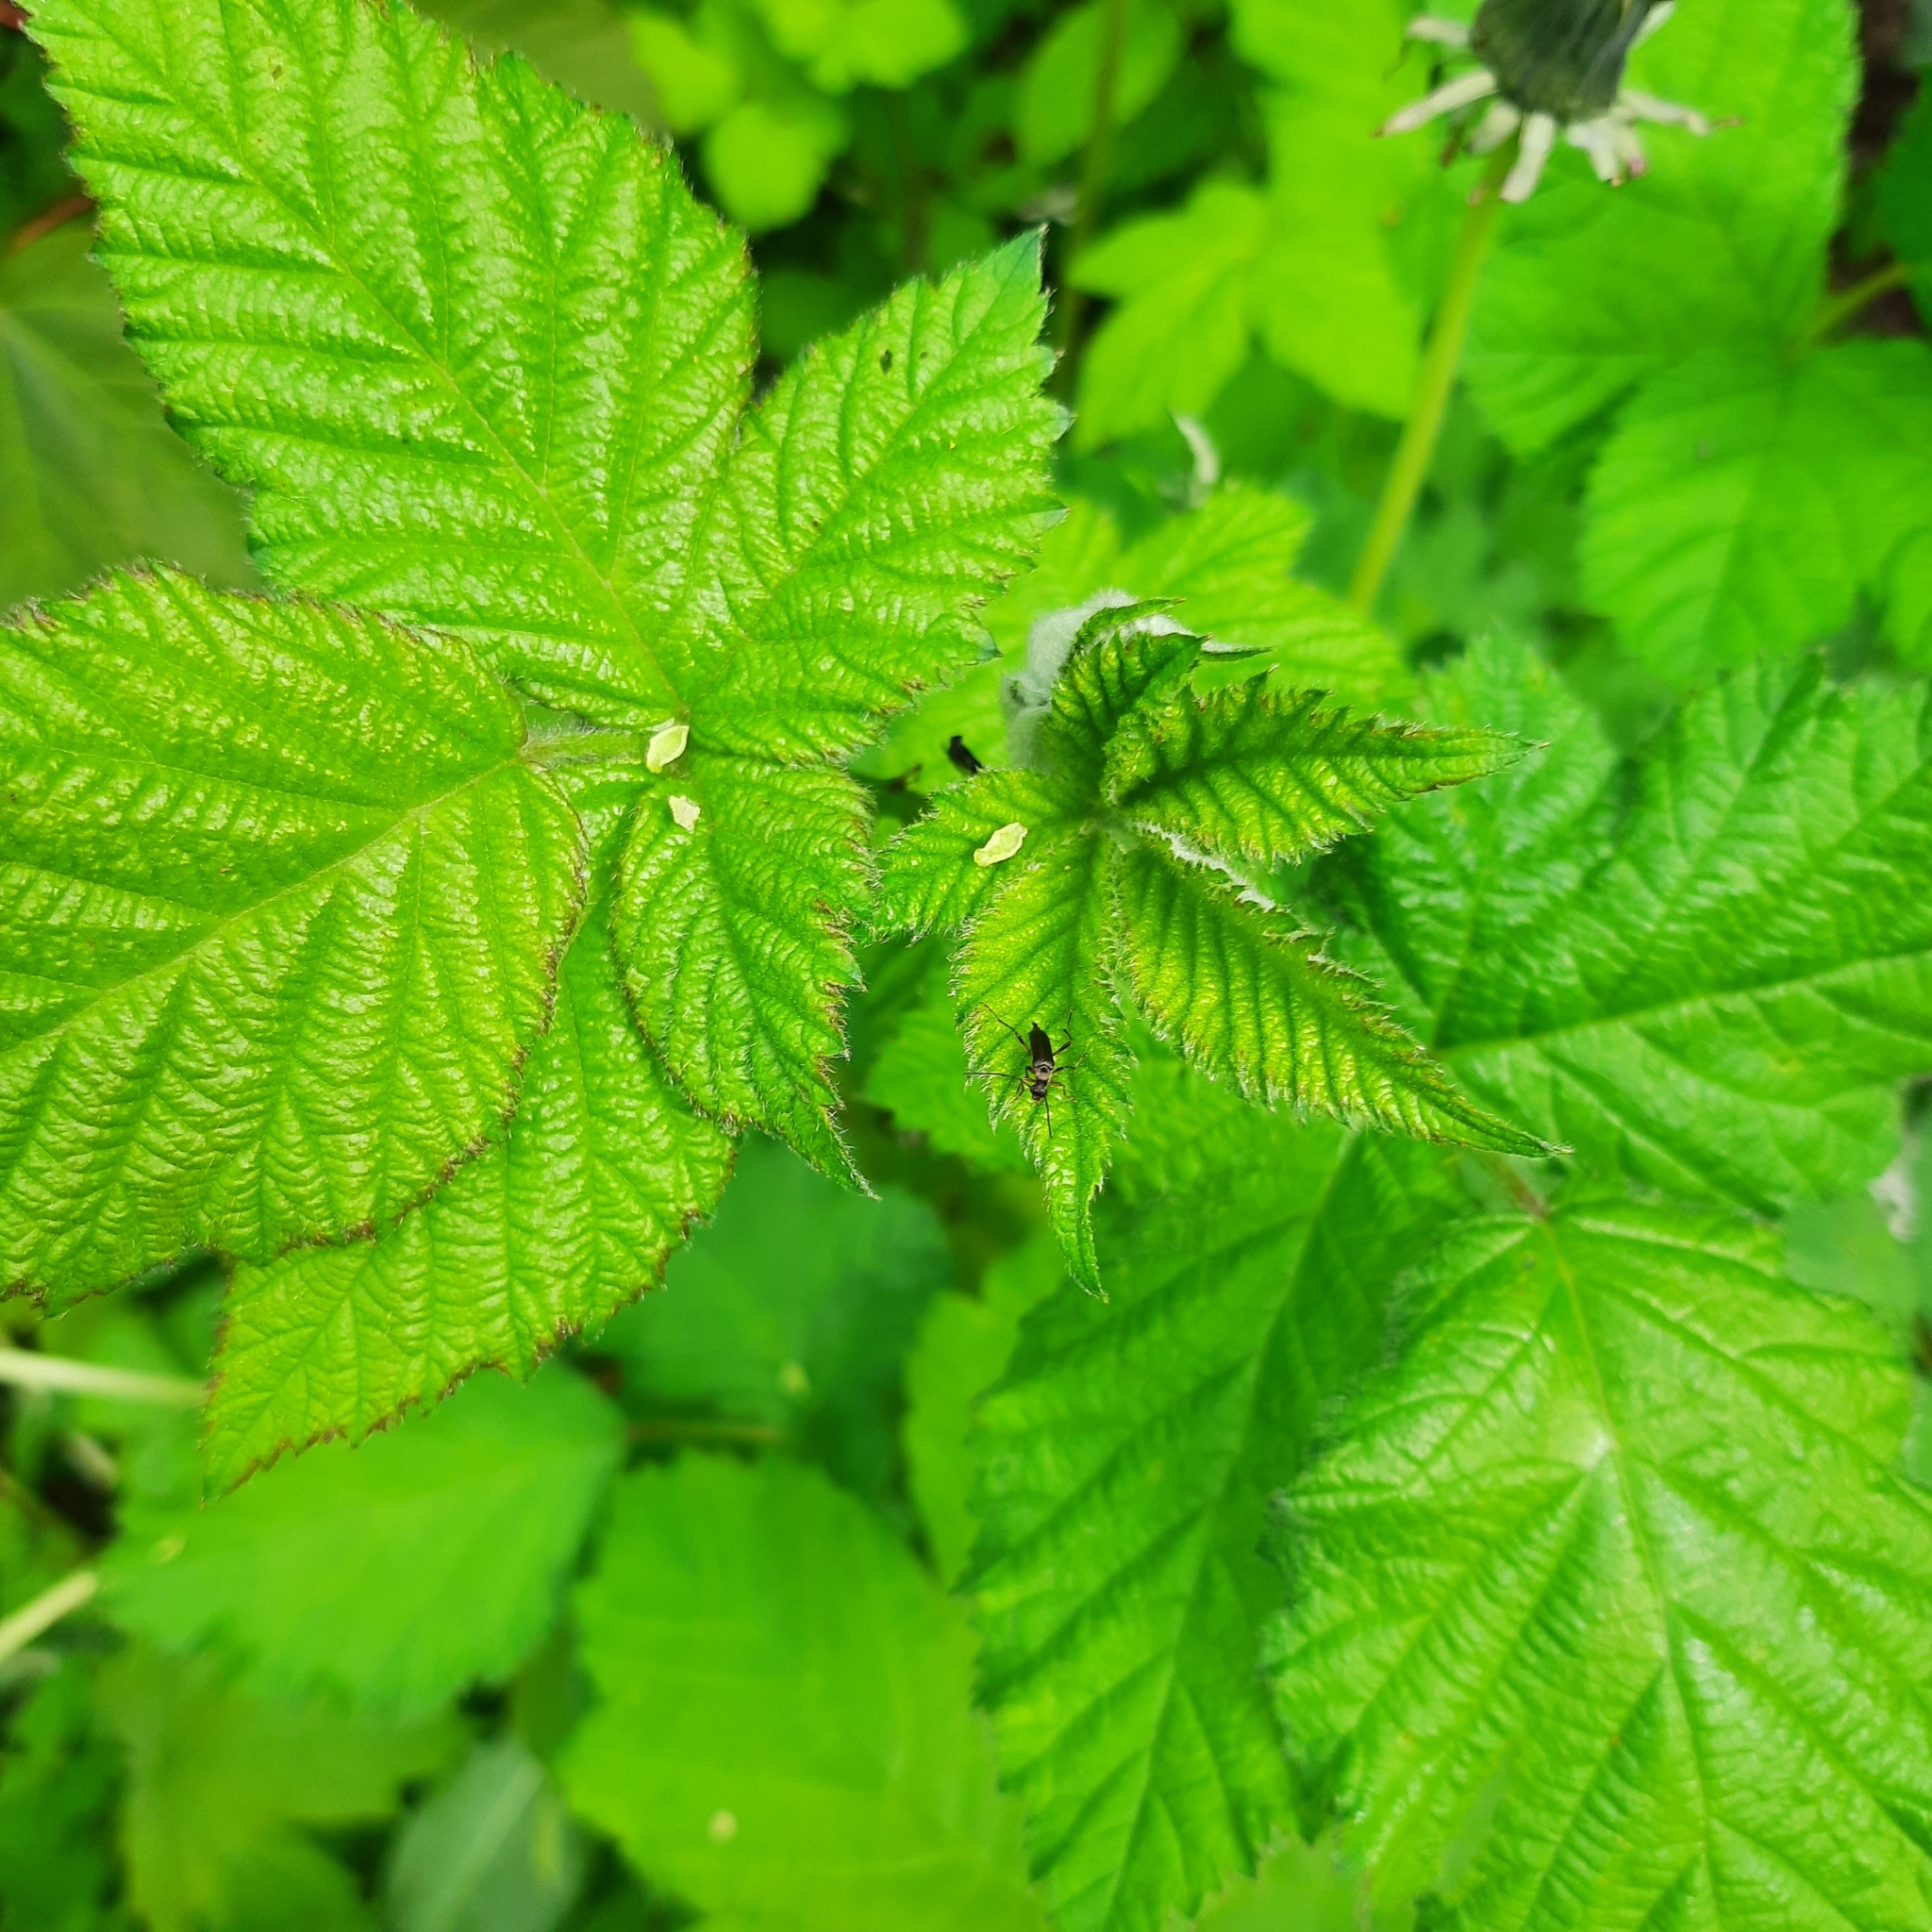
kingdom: Animalia
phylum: Arthropoda
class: Insecta
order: Coleoptera
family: Cerambycidae
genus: Grammoptera
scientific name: Grammoptera ruficornis
